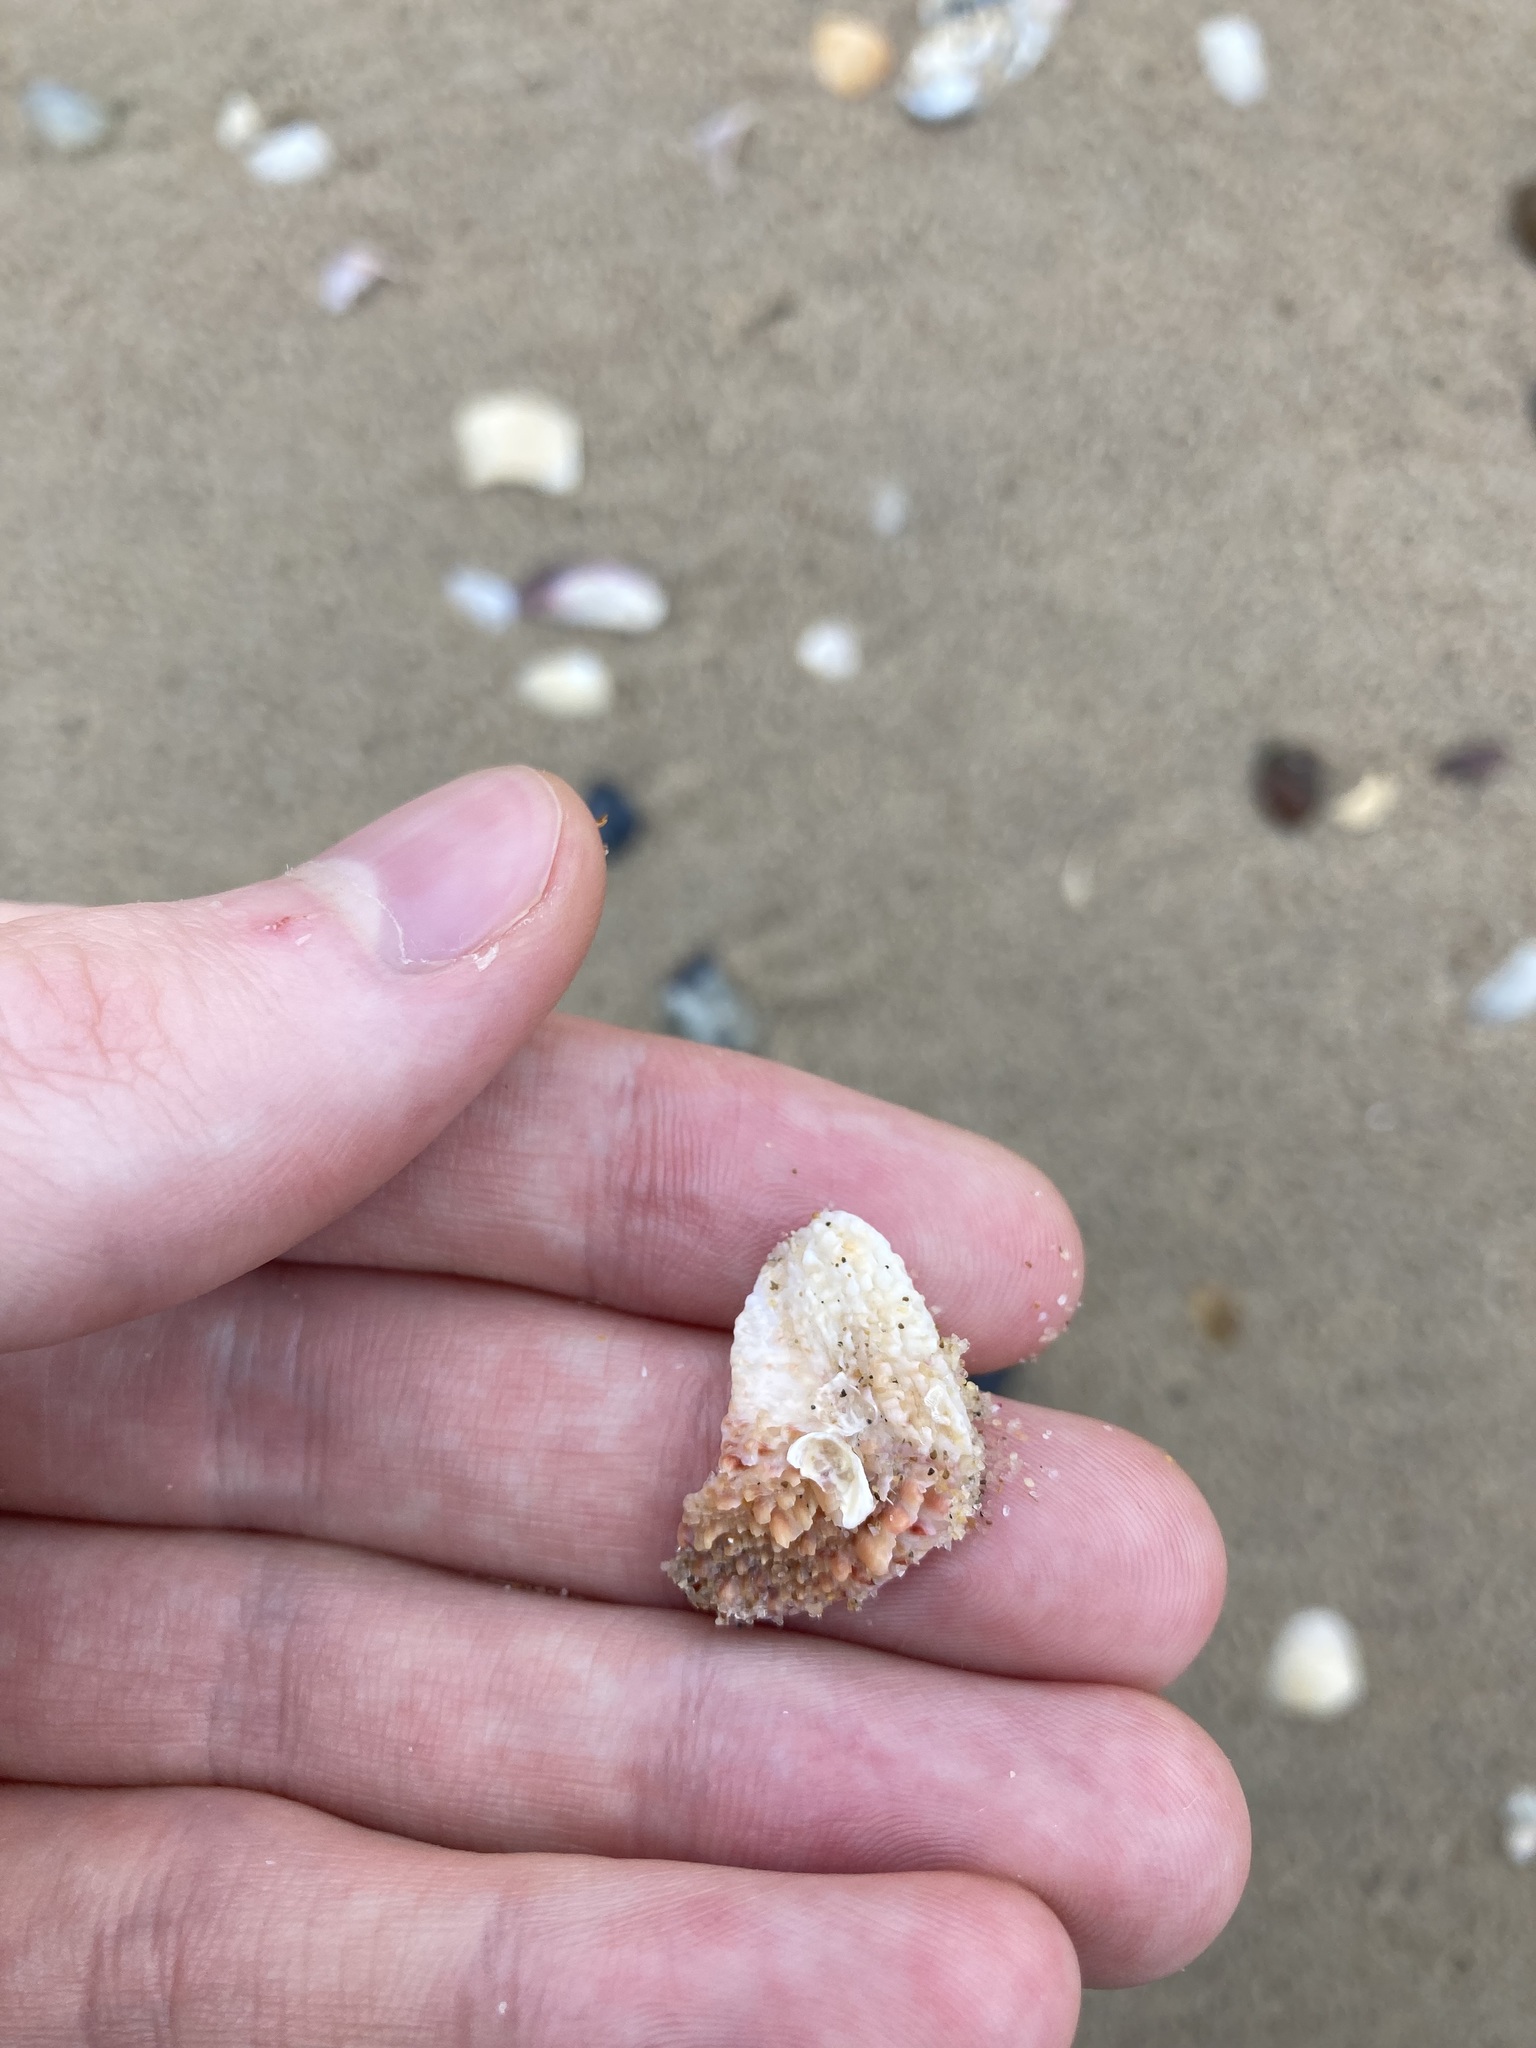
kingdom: Animalia
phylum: Mollusca
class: Bivalvia
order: Venerida
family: Chamidae
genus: Chama
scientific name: Chama asperella
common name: Mollusca
